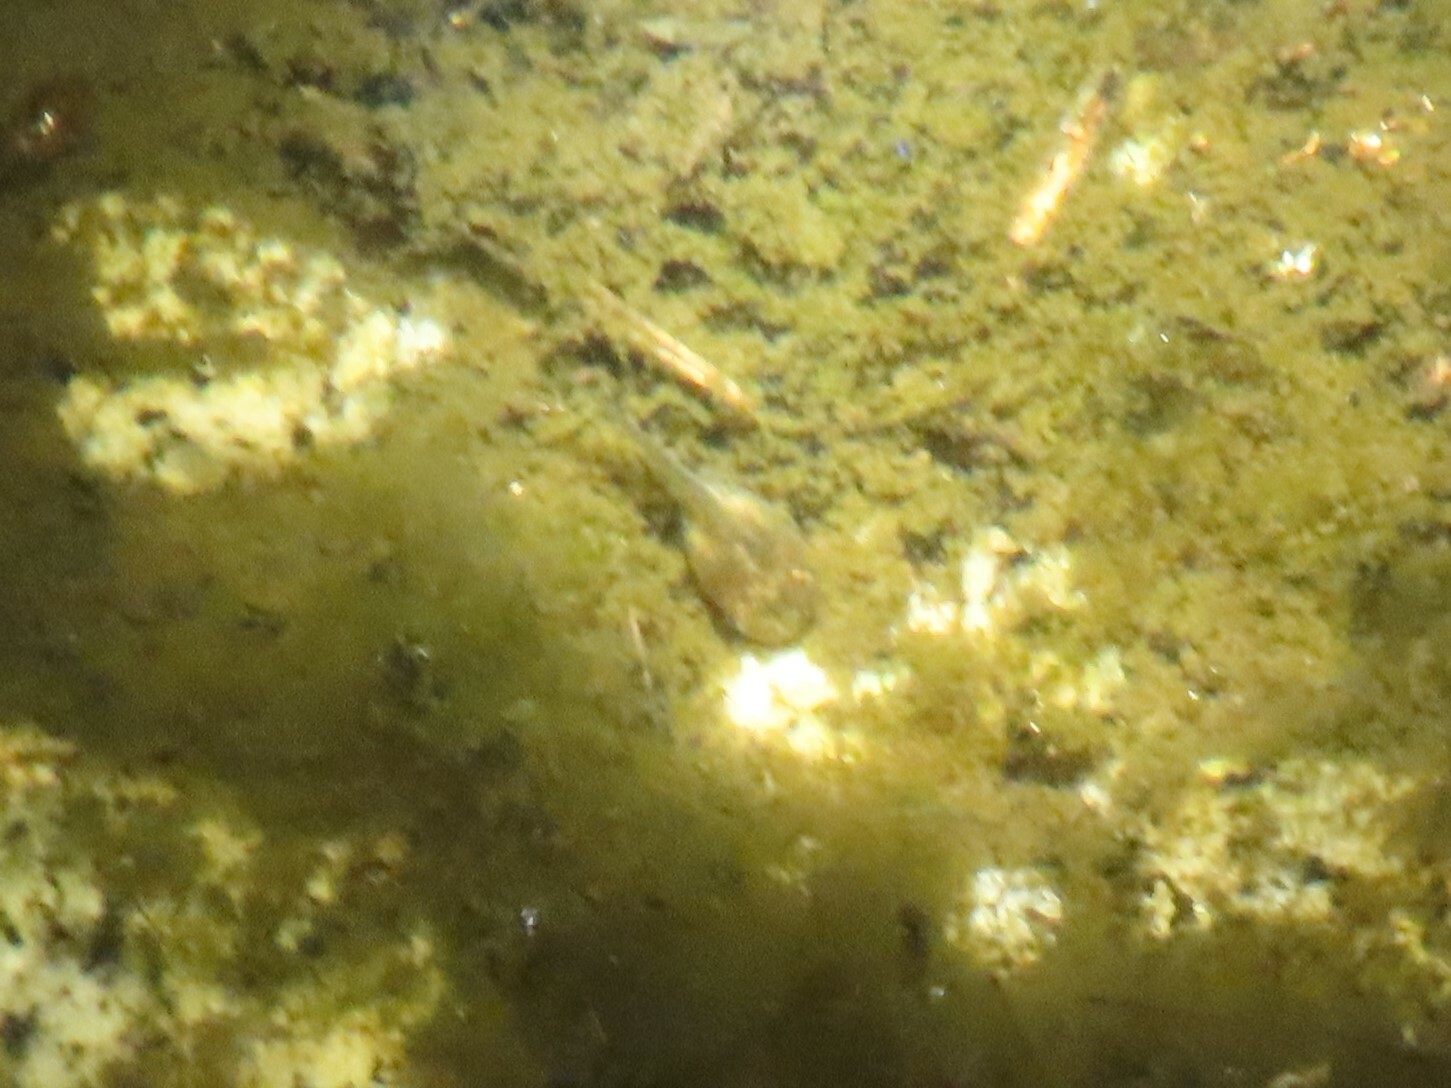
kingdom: Animalia
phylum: Chordata
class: Amphibia
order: Anura
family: Pelobatidae
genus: Pelobates
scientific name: Pelobates cultripes
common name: Western spadefoot
